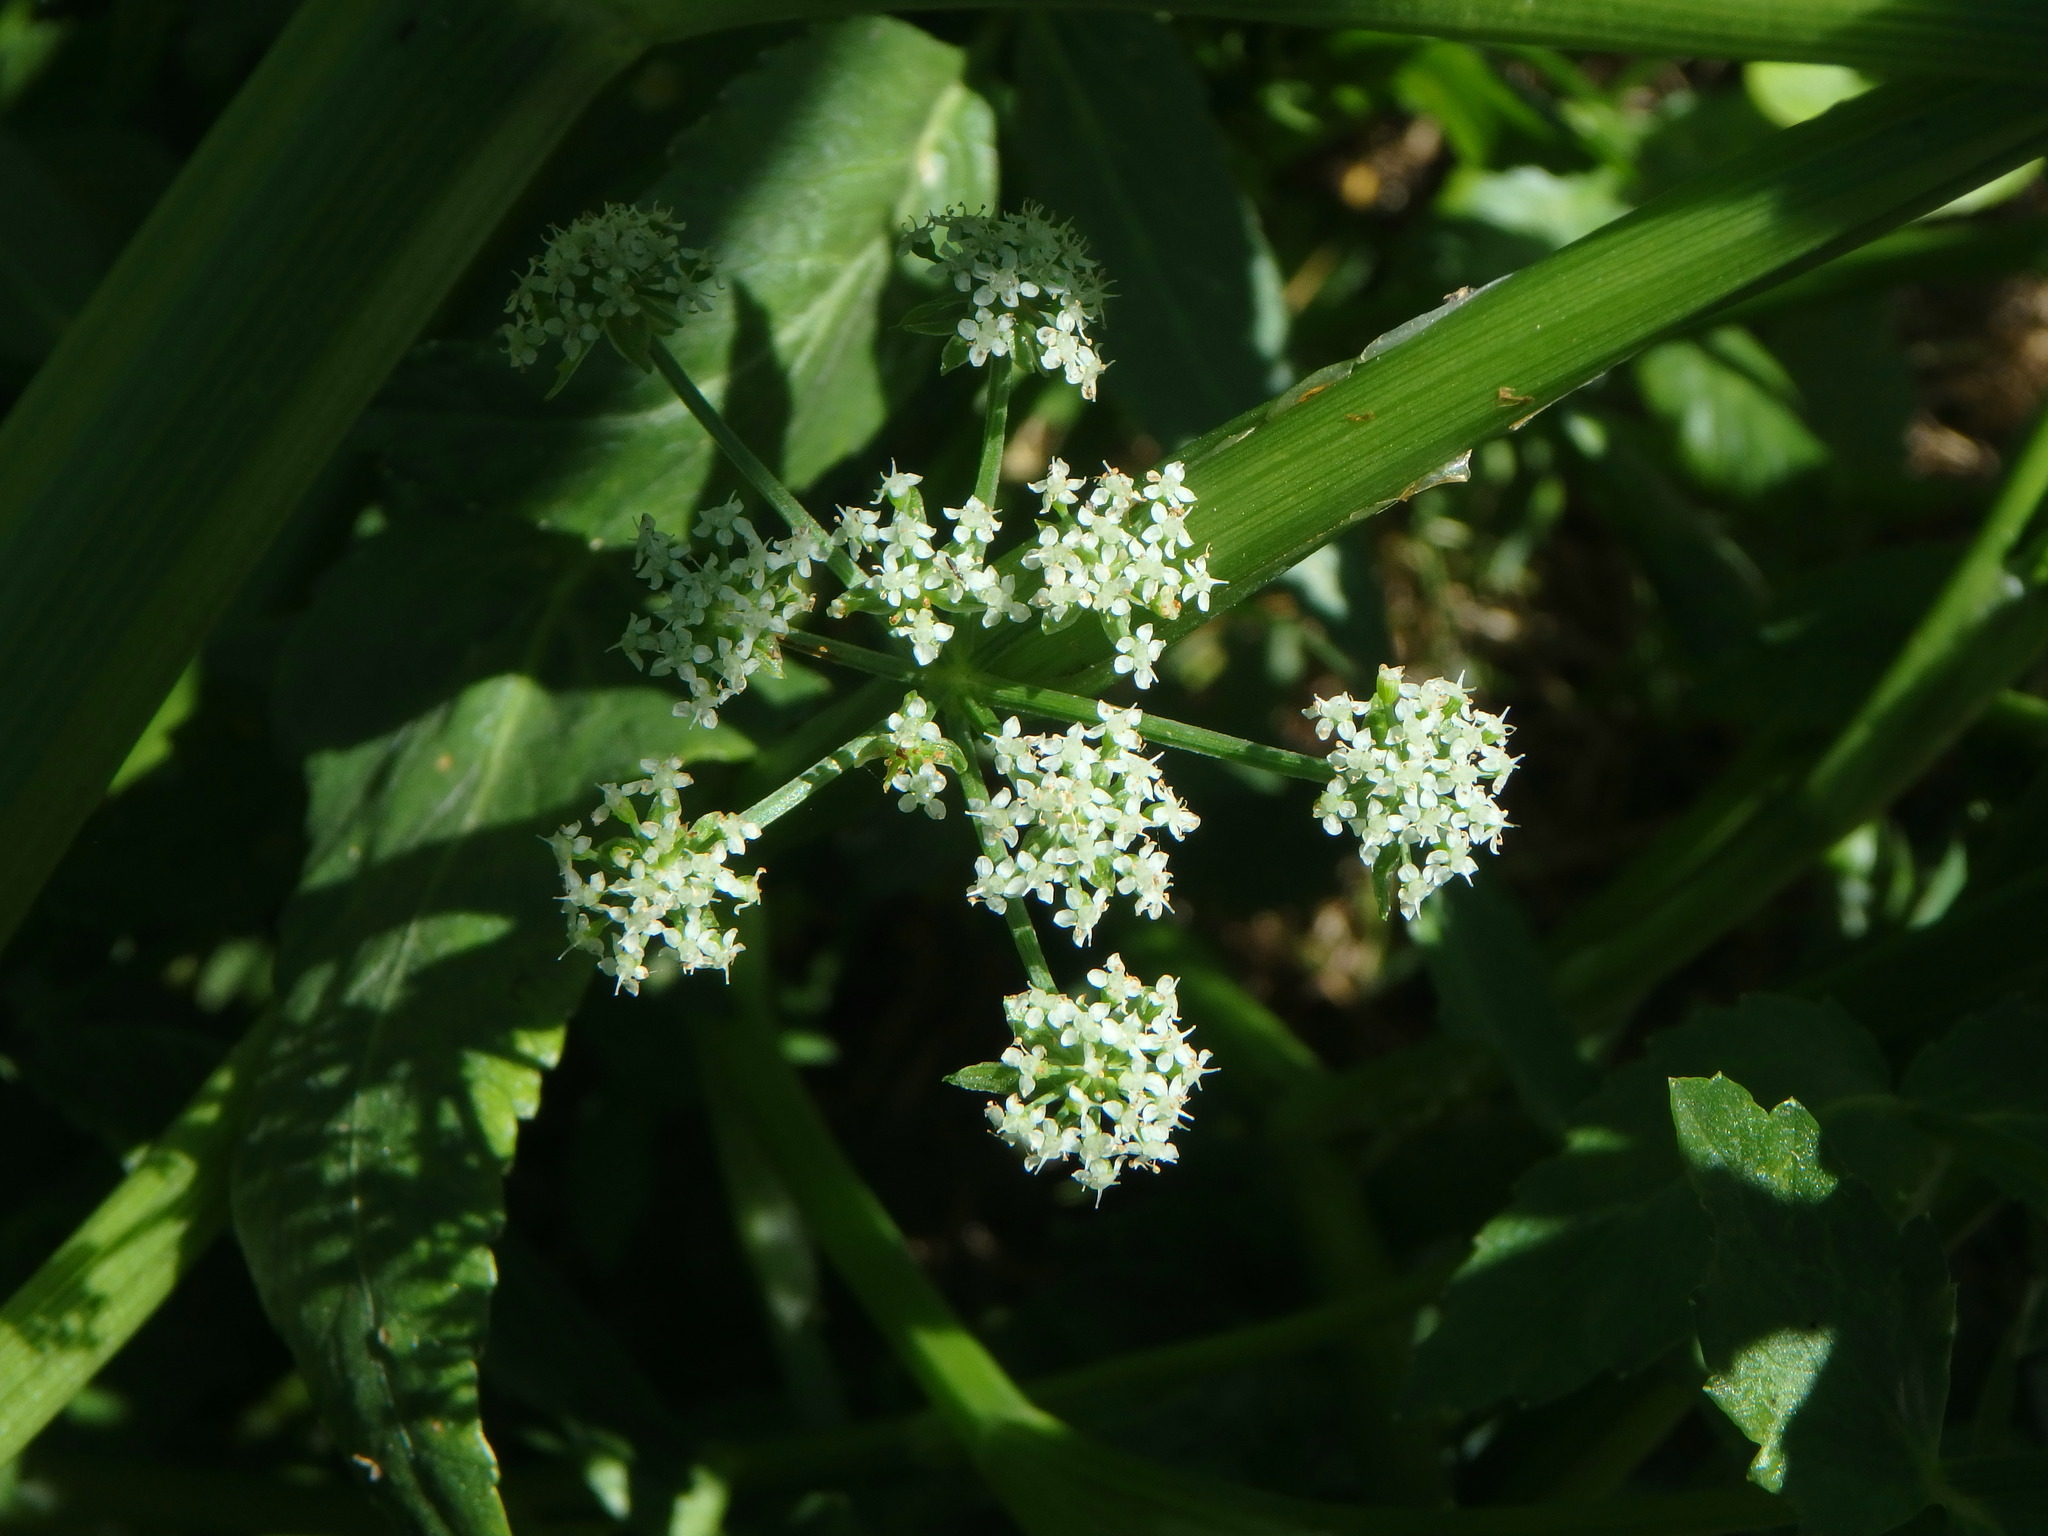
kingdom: Plantae
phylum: Tracheophyta
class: Magnoliopsida
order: Apiales
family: Apiaceae
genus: Helosciadium
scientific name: Helosciadium nodiflorum
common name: Fool's-watercress
